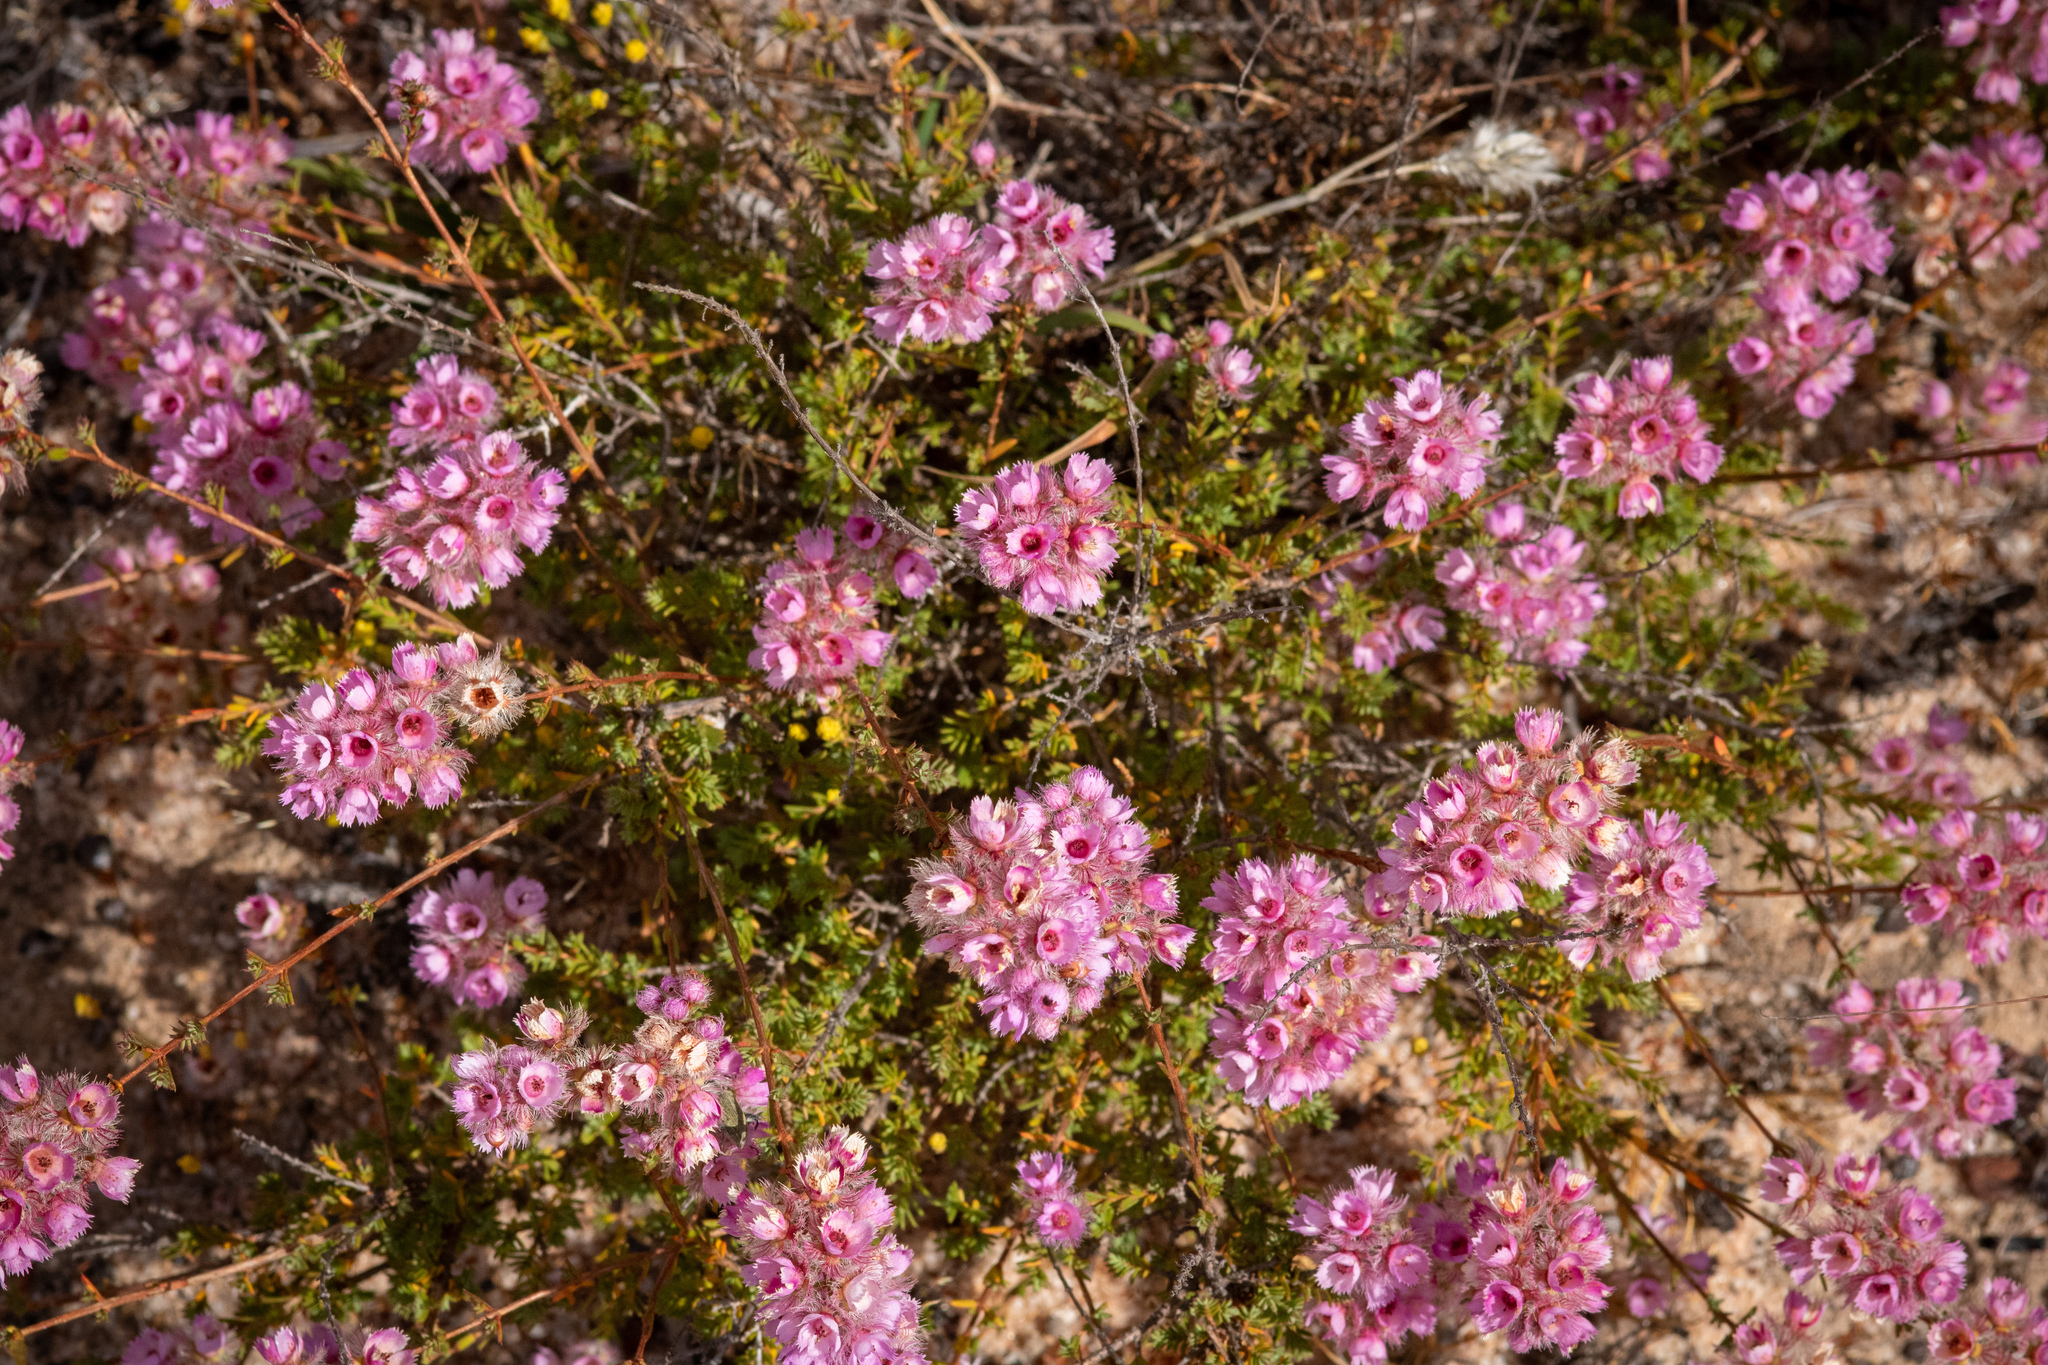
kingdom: Plantae
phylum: Tracheophyta
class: Magnoliopsida
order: Myrtales
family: Myrtaceae
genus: Verticordia
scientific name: Verticordia pennigera
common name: Native-tea
